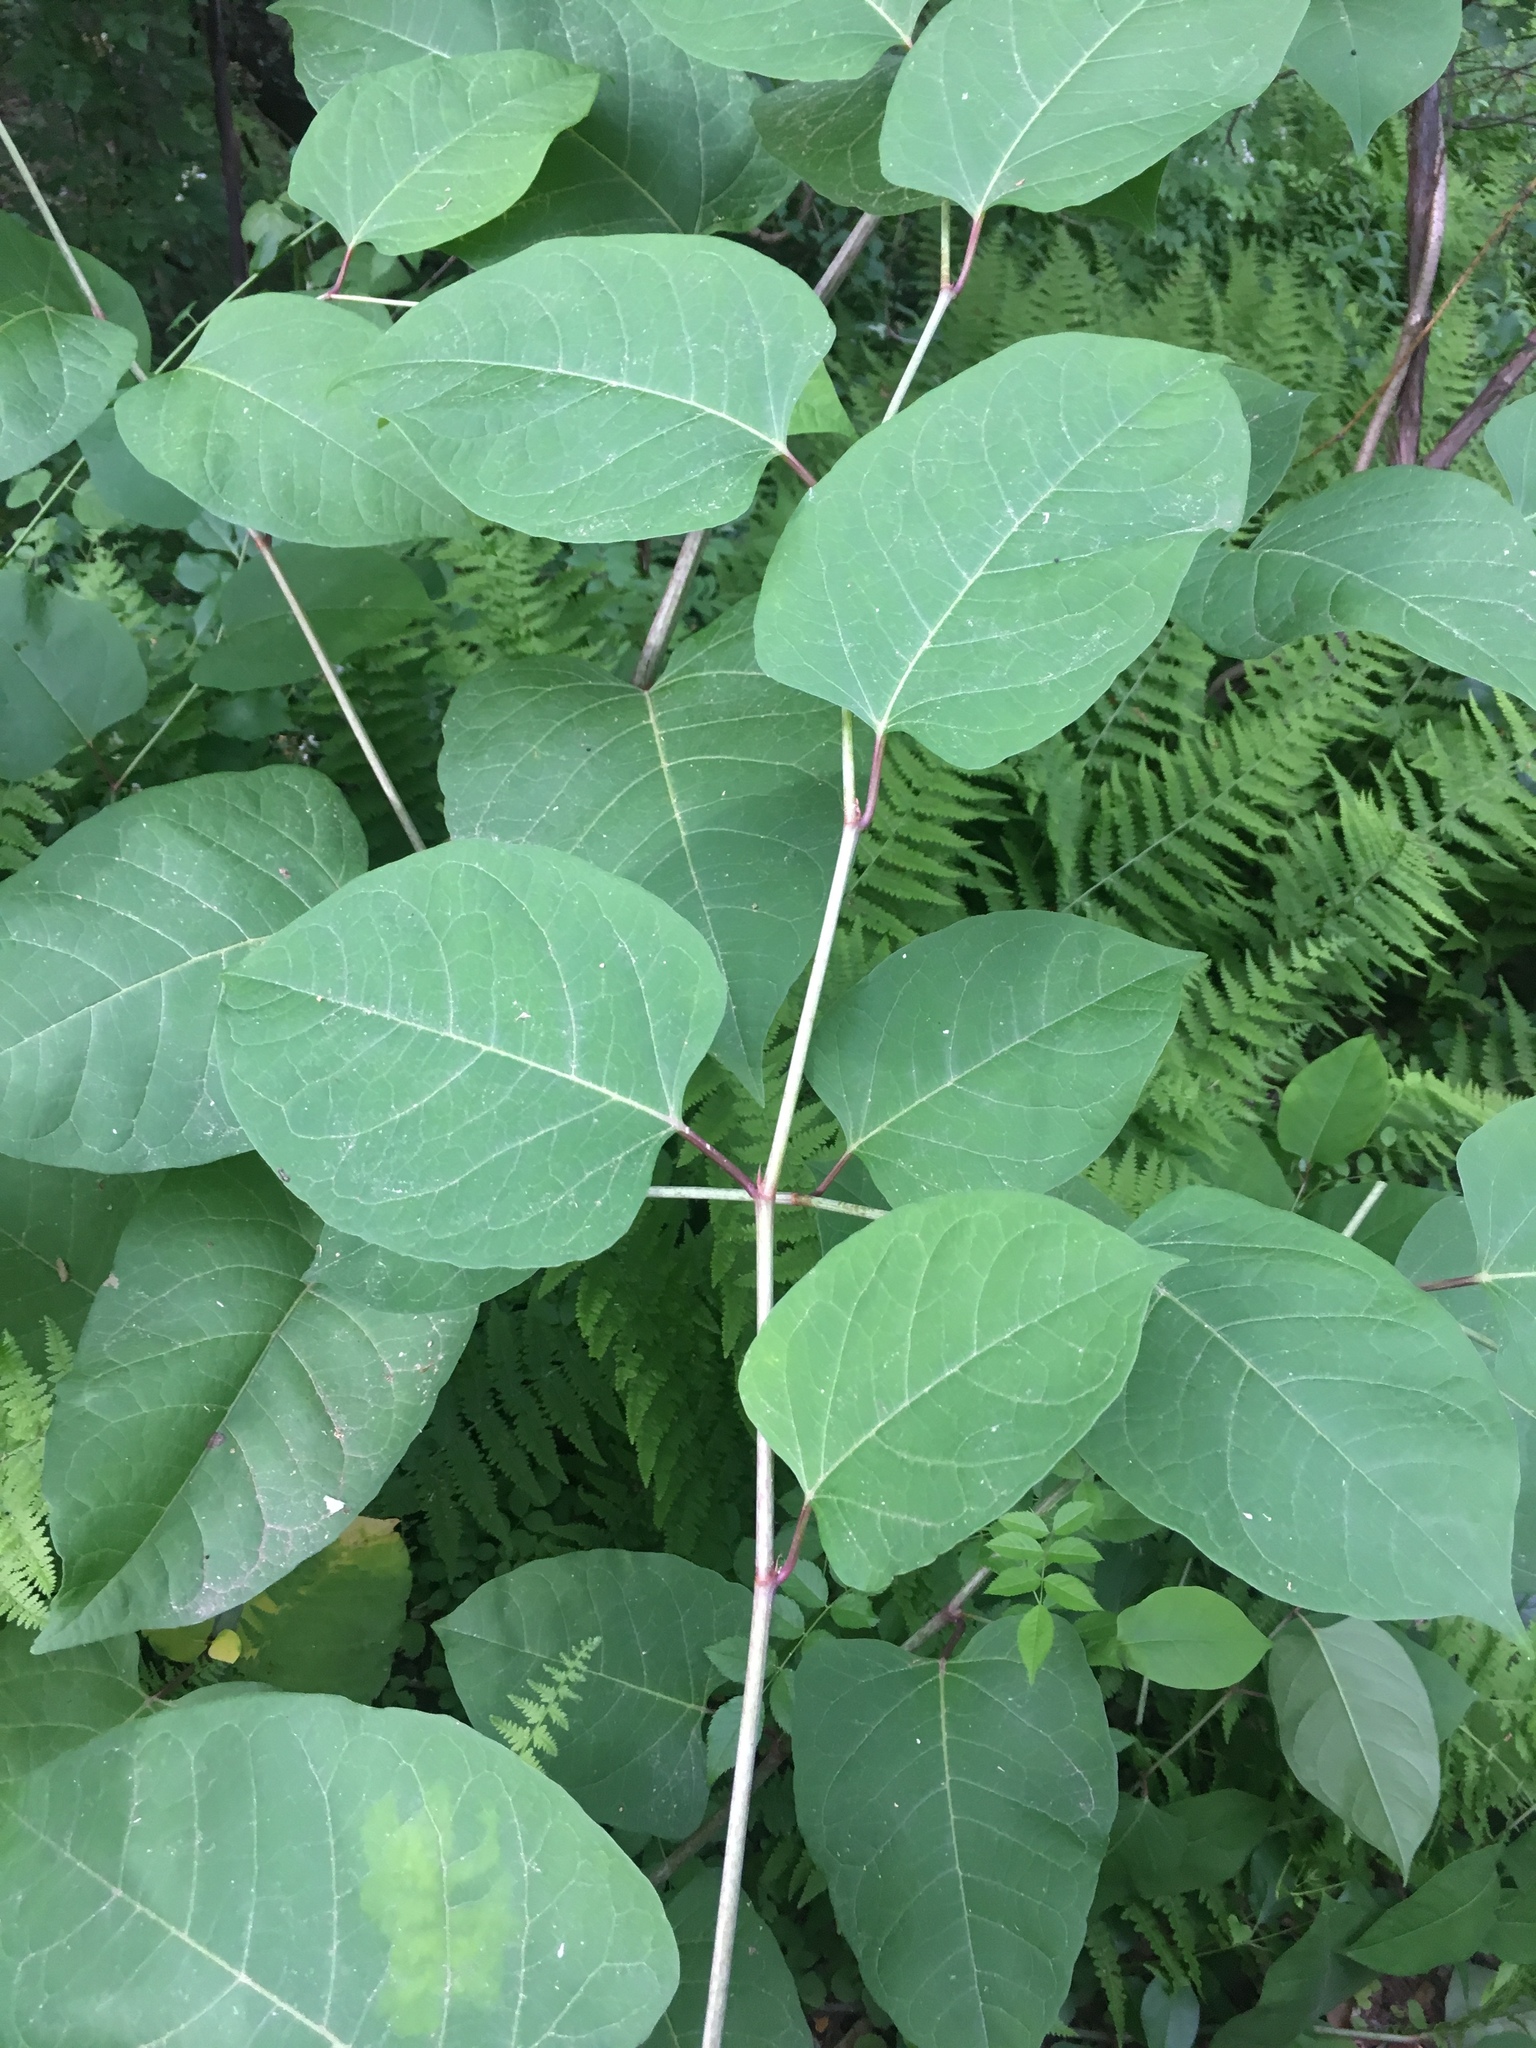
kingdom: Plantae
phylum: Tracheophyta
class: Magnoliopsida
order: Caryophyllales
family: Polygonaceae
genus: Reynoutria
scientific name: Reynoutria japonica
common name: Japanese knotweed
